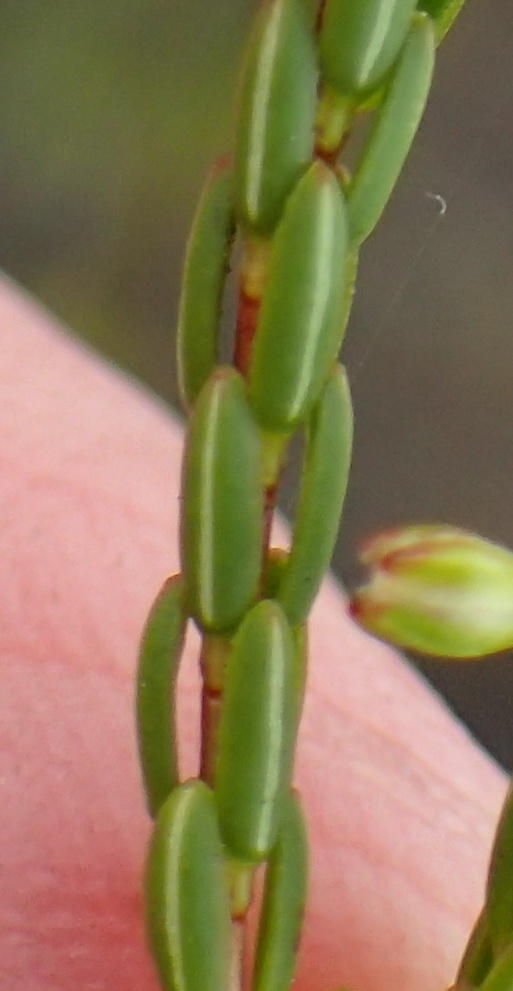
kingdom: Plantae
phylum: Tracheophyta
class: Magnoliopsida
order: Ericales
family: Ericaceae
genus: Erica
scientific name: Erica pulchella
